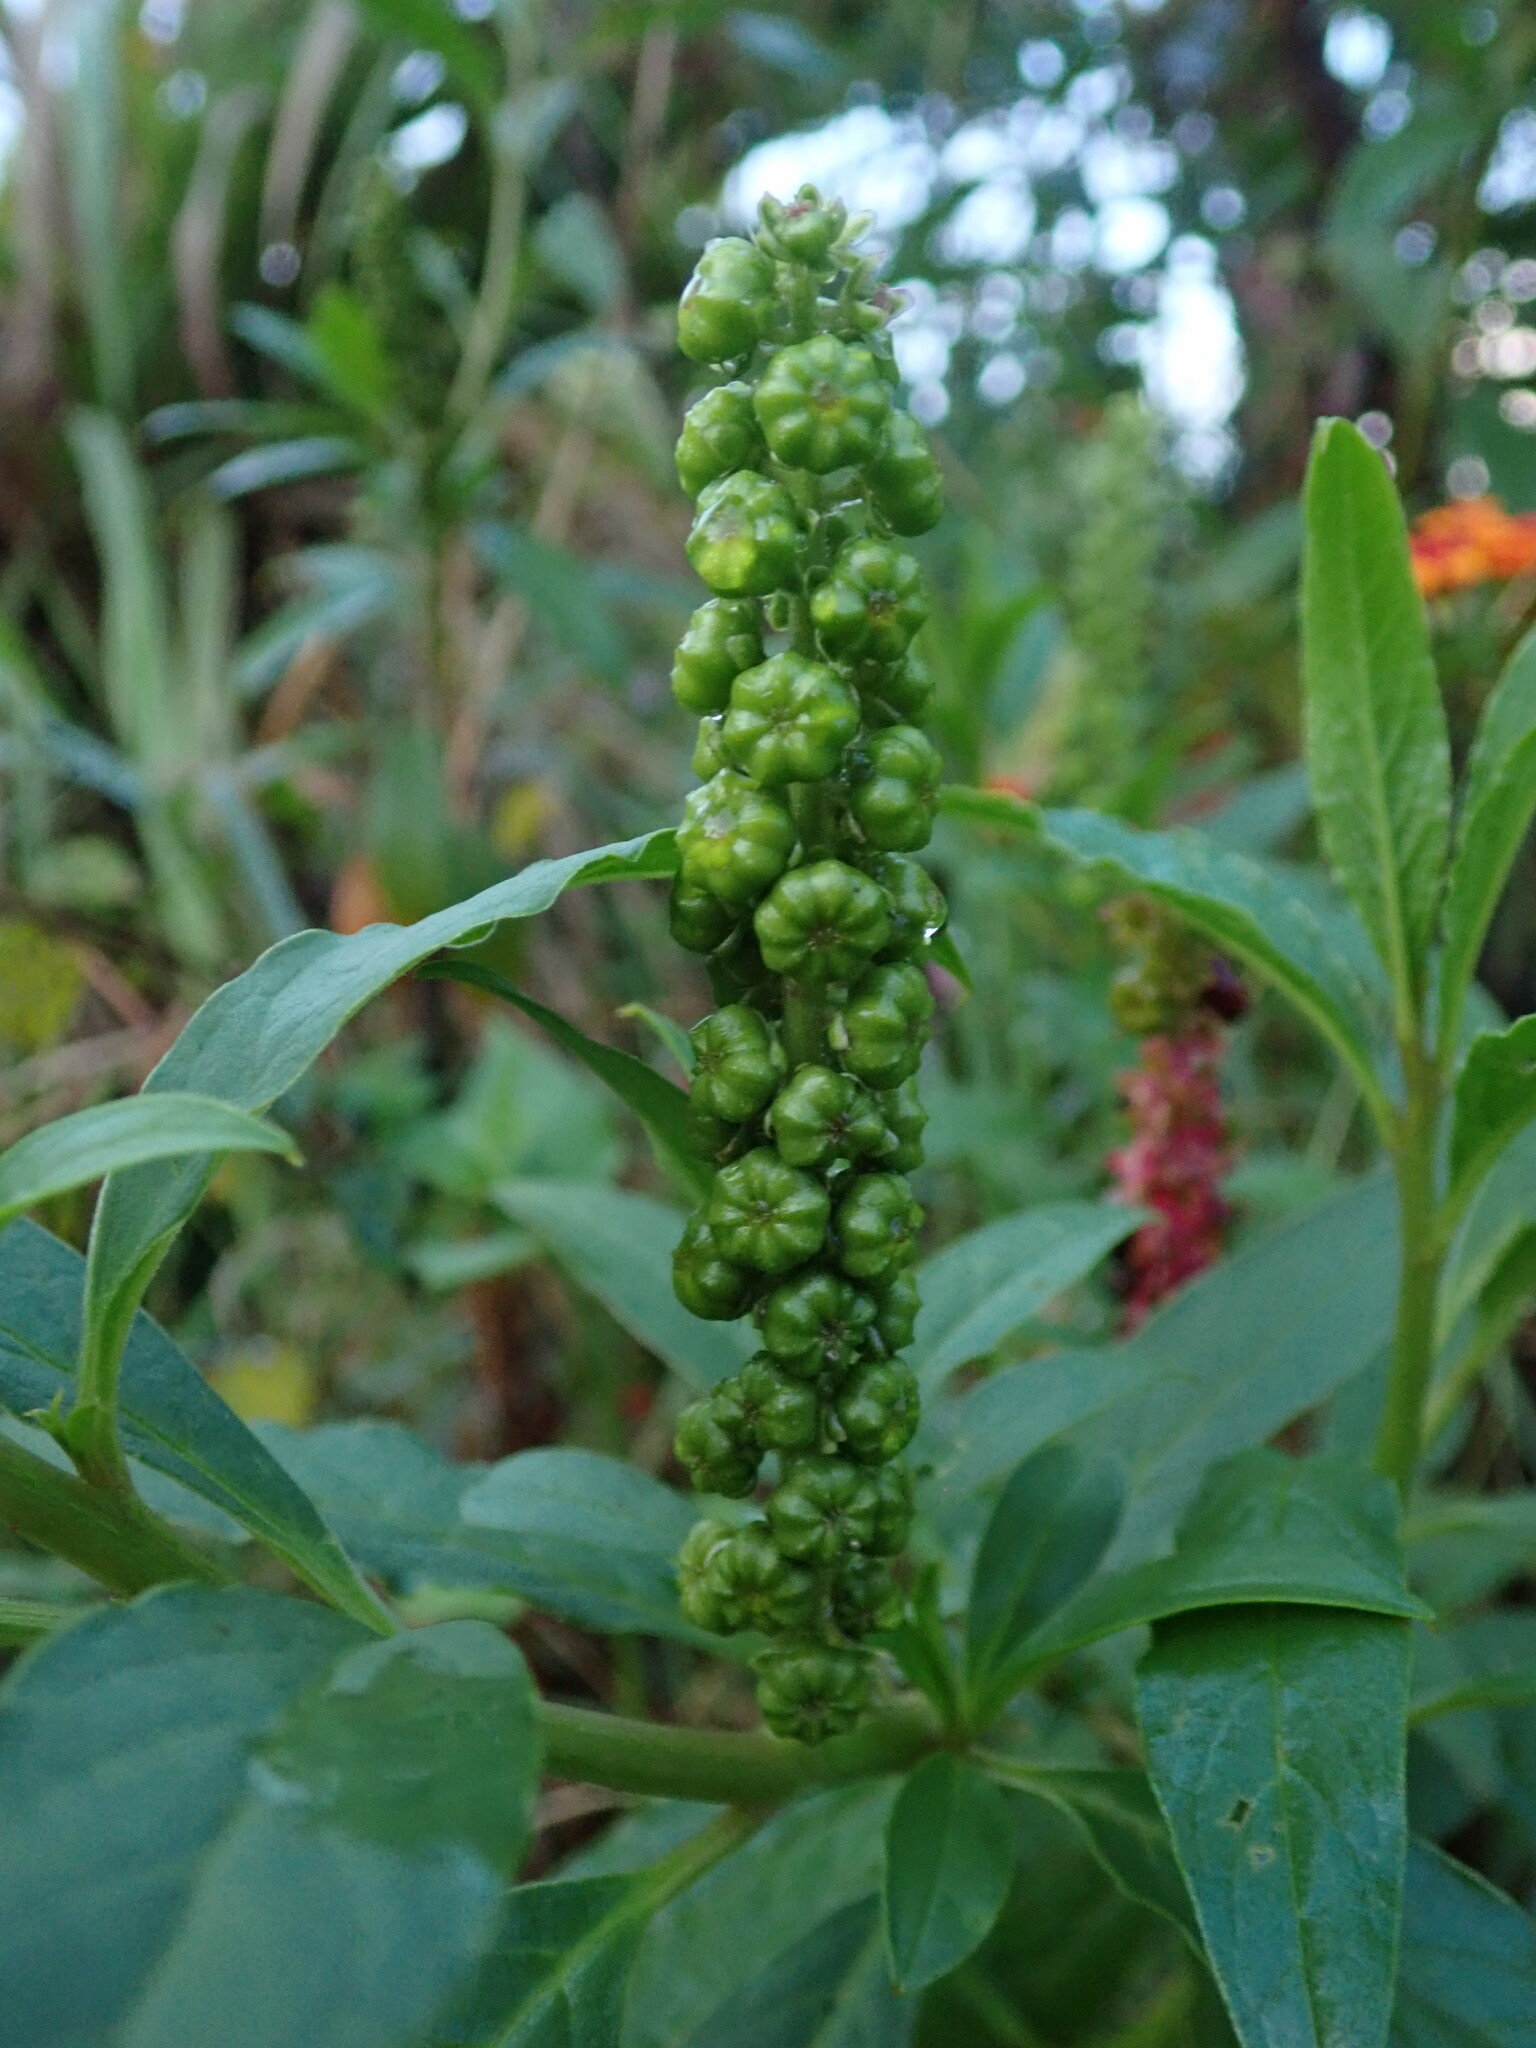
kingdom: Plantae
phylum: Tracheophyta
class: Magnoliopsida
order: Caryophyllales
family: Phytolaccaceae
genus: Phytolacca
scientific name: Phytolacca icosandra
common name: Button pokeweed
